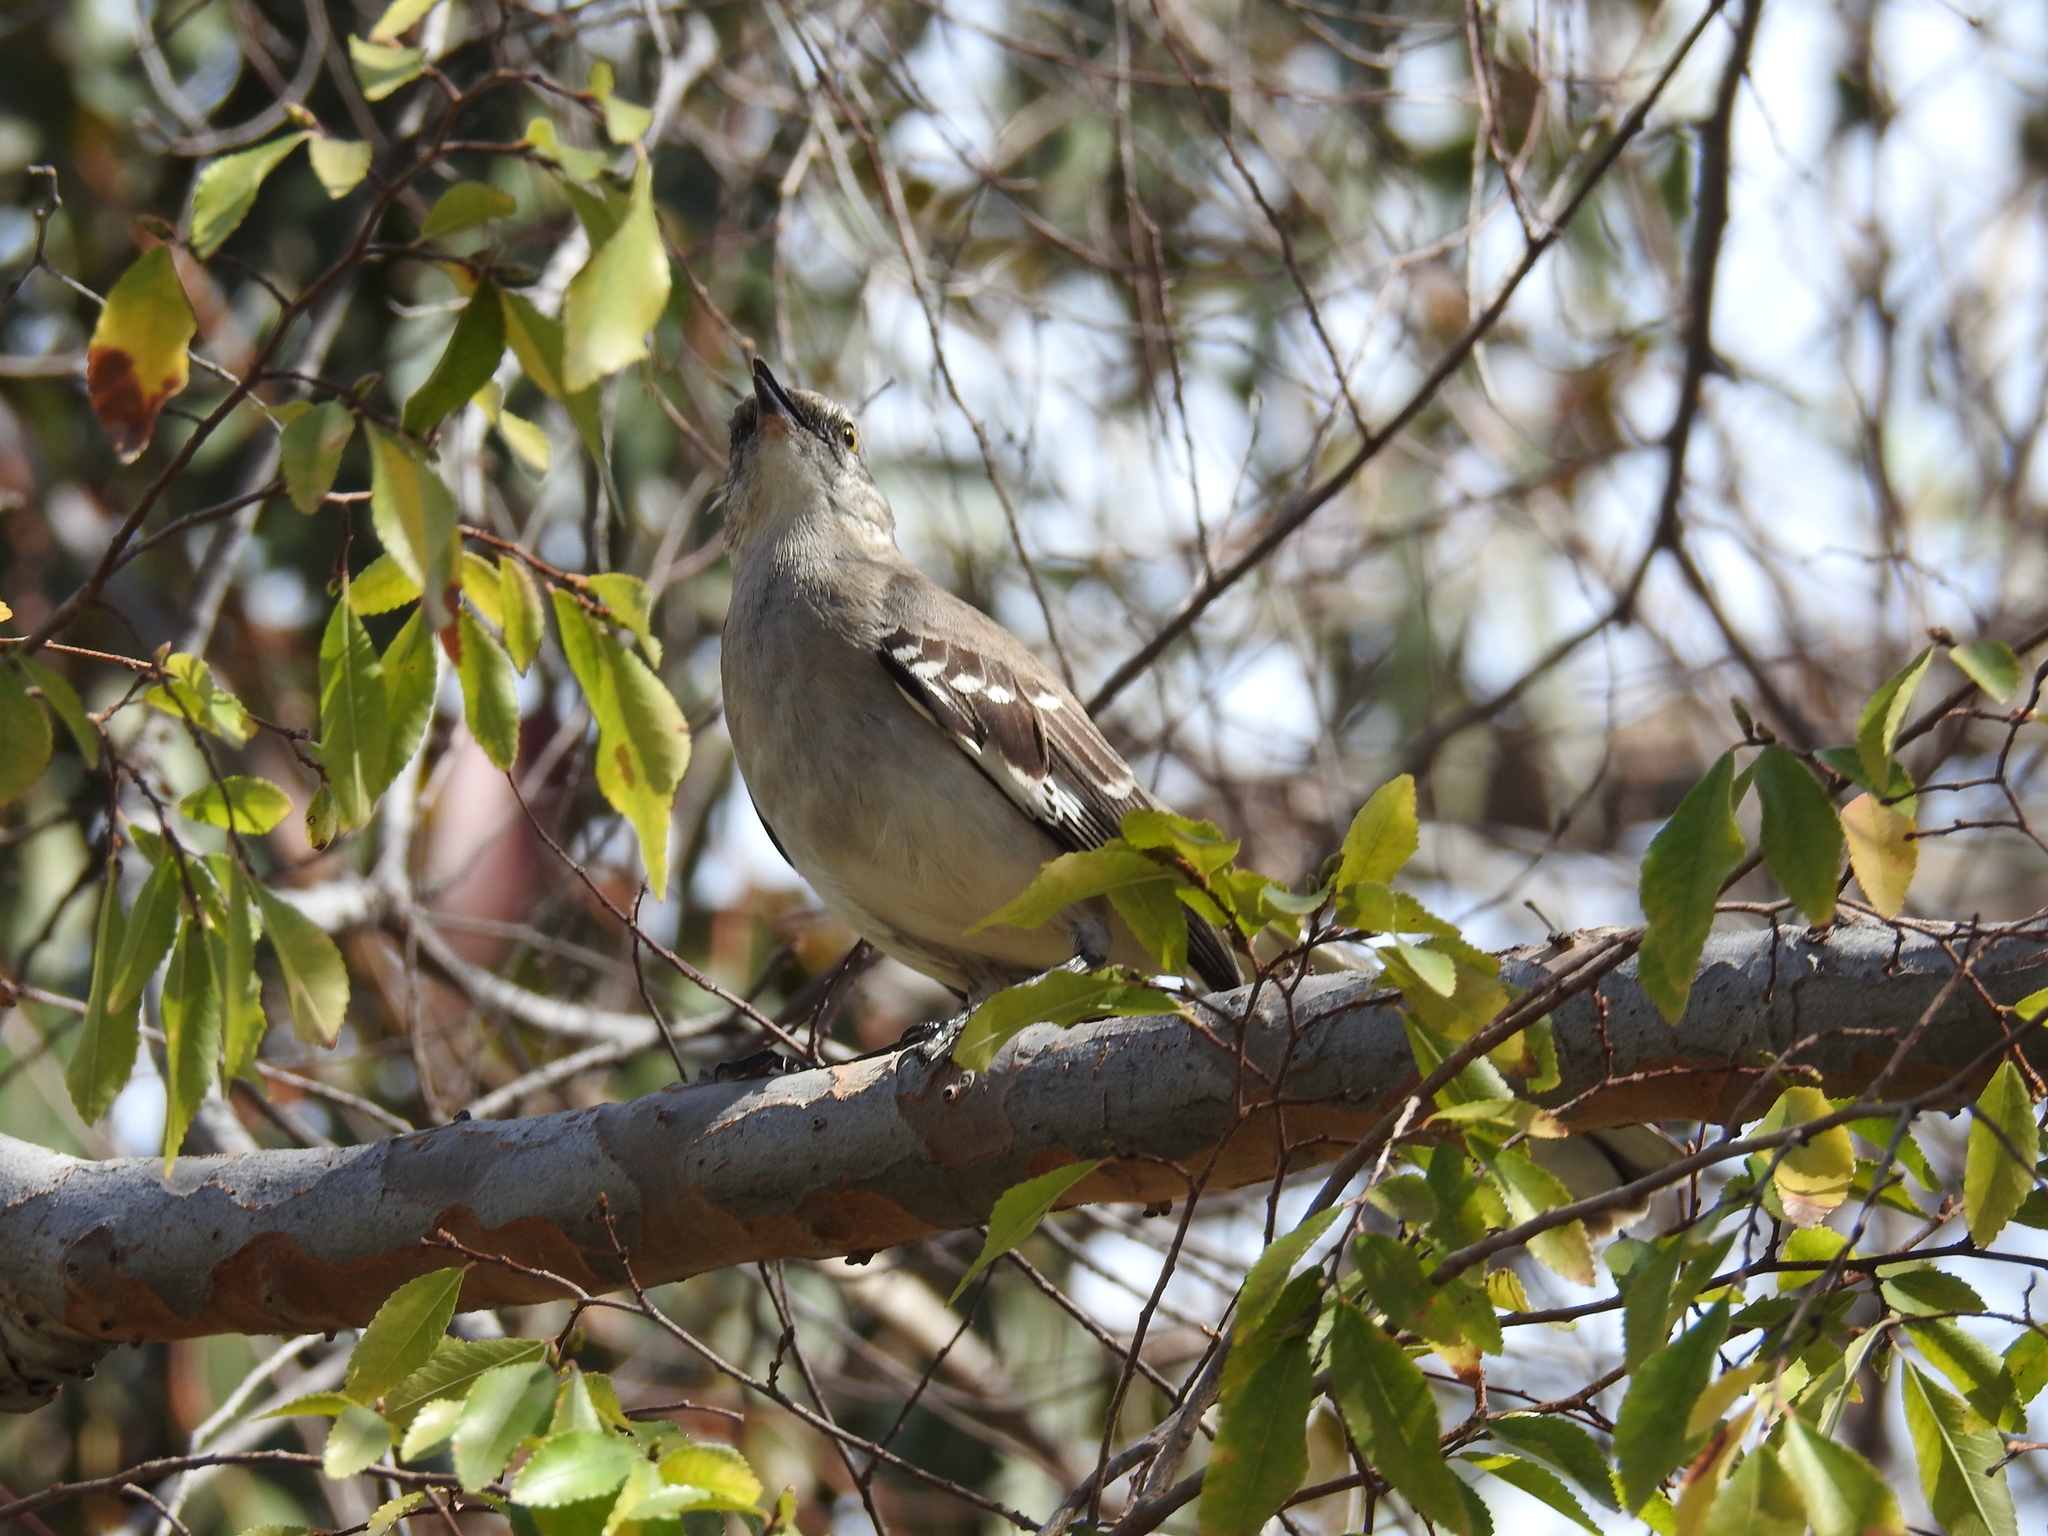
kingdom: Animalia
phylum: Chordata
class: Aves
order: Passeriformes
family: Mimidae
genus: Mimus
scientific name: Mimus polyglottos
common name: Northern mockingbird
